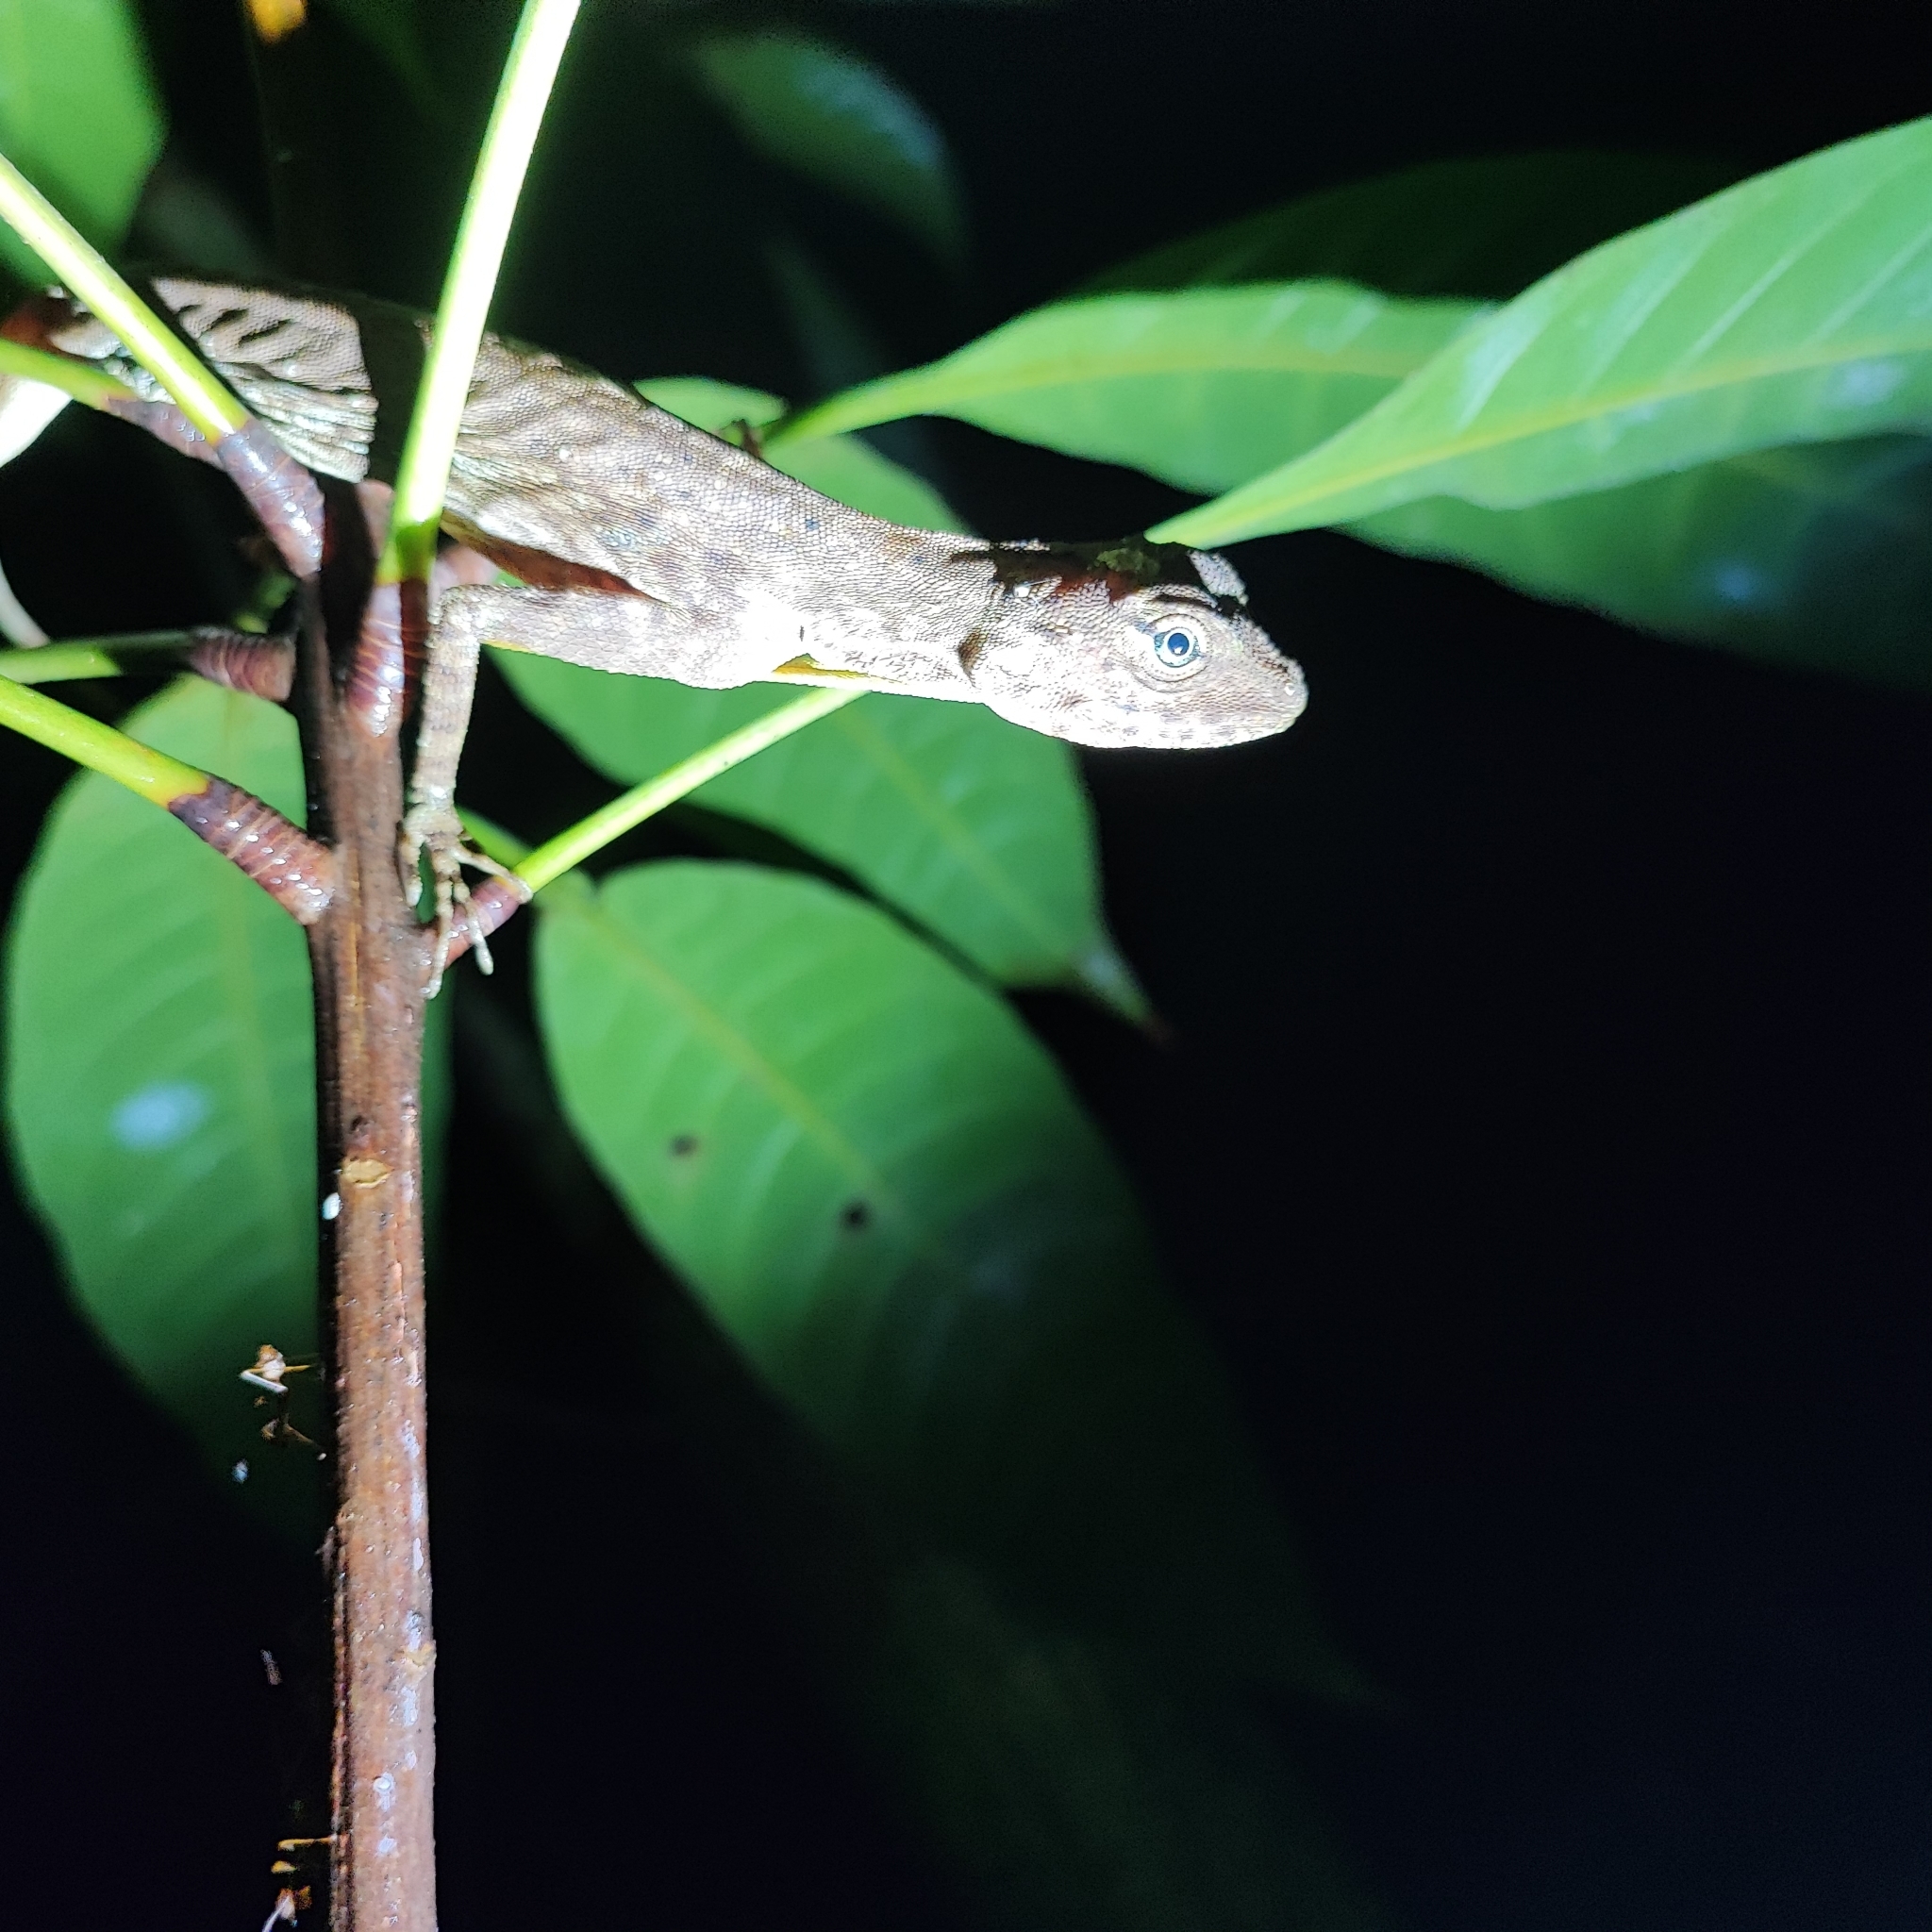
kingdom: Animalia
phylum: Chordata
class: Squamata
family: Agamidae
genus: Draco
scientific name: Draco indochinensis
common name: Indochinese flying lizard
